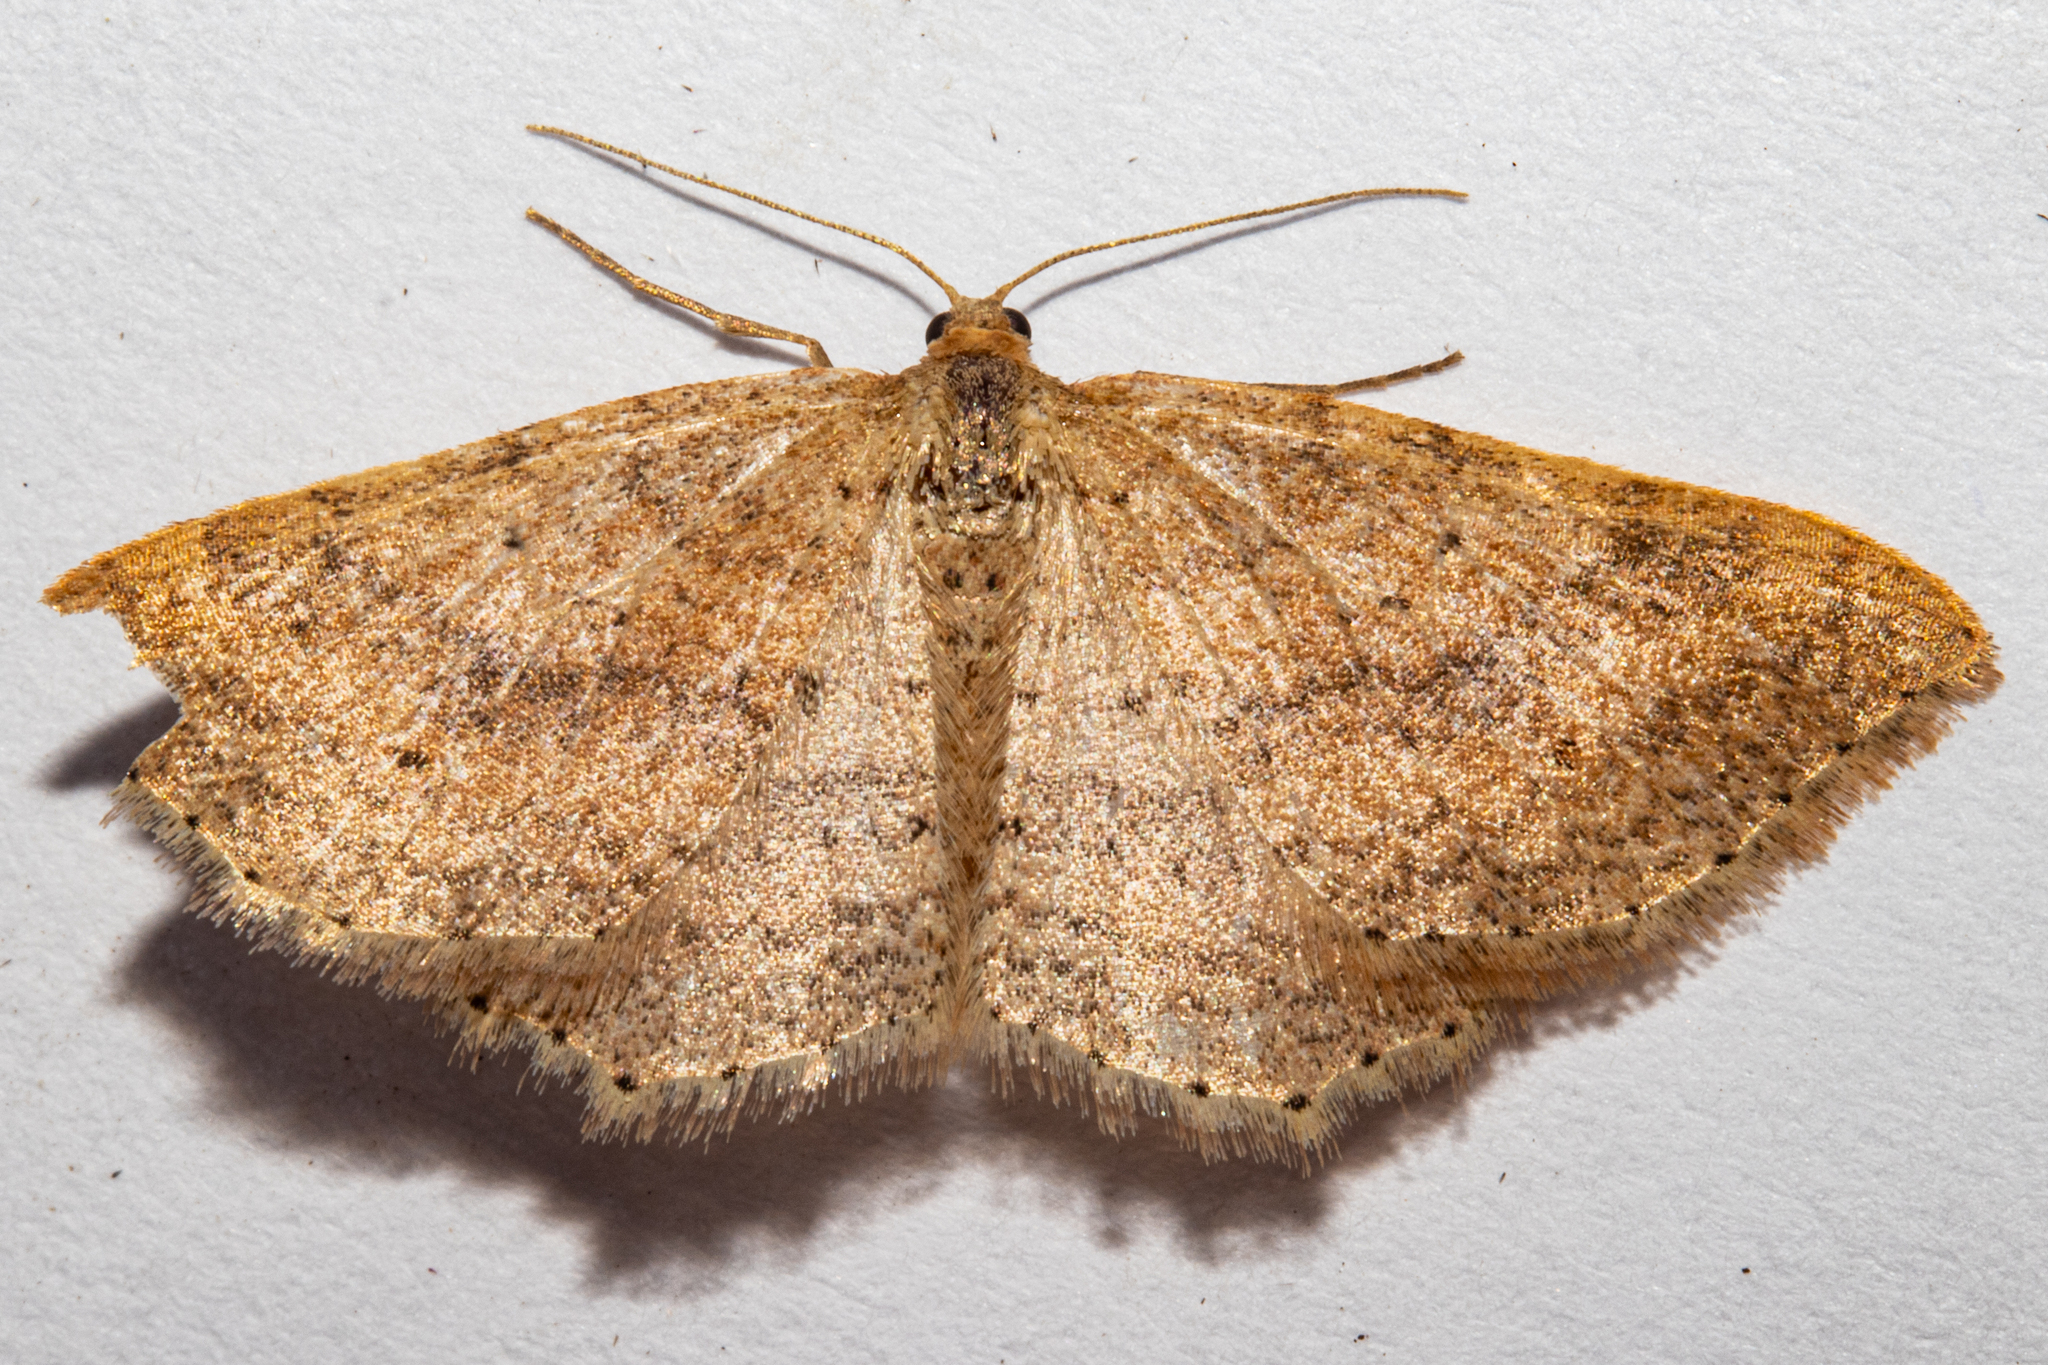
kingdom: Animalia
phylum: Arthropoda
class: Insecta
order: Lepidoptera
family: Geometridae
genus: Epicyme
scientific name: Epicyme rubropunctaria
